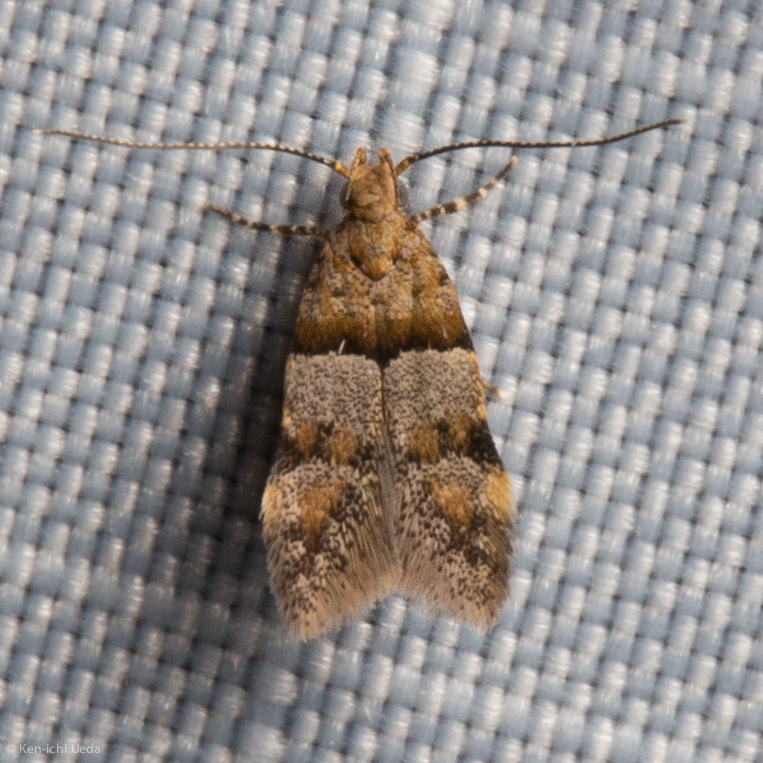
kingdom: Animalia
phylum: Arthropoda
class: Insecta
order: Lepidoptera
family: Gelechiidae
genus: Theisoa
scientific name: Theisoa constrictella
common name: Constricted twirler
